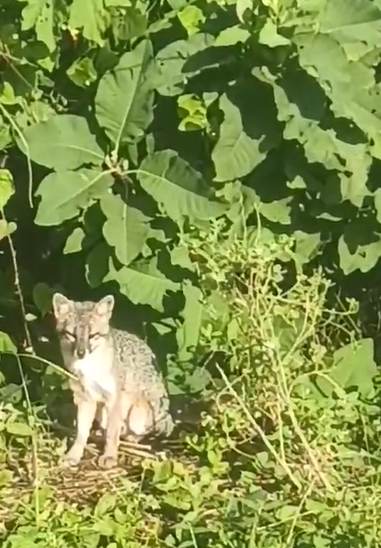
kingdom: Animalia
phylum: Chordata
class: Mammalia
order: Carnivora
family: Canidae
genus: Urocyon
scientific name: Urocyon cinereoargenteus
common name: Gray fox
